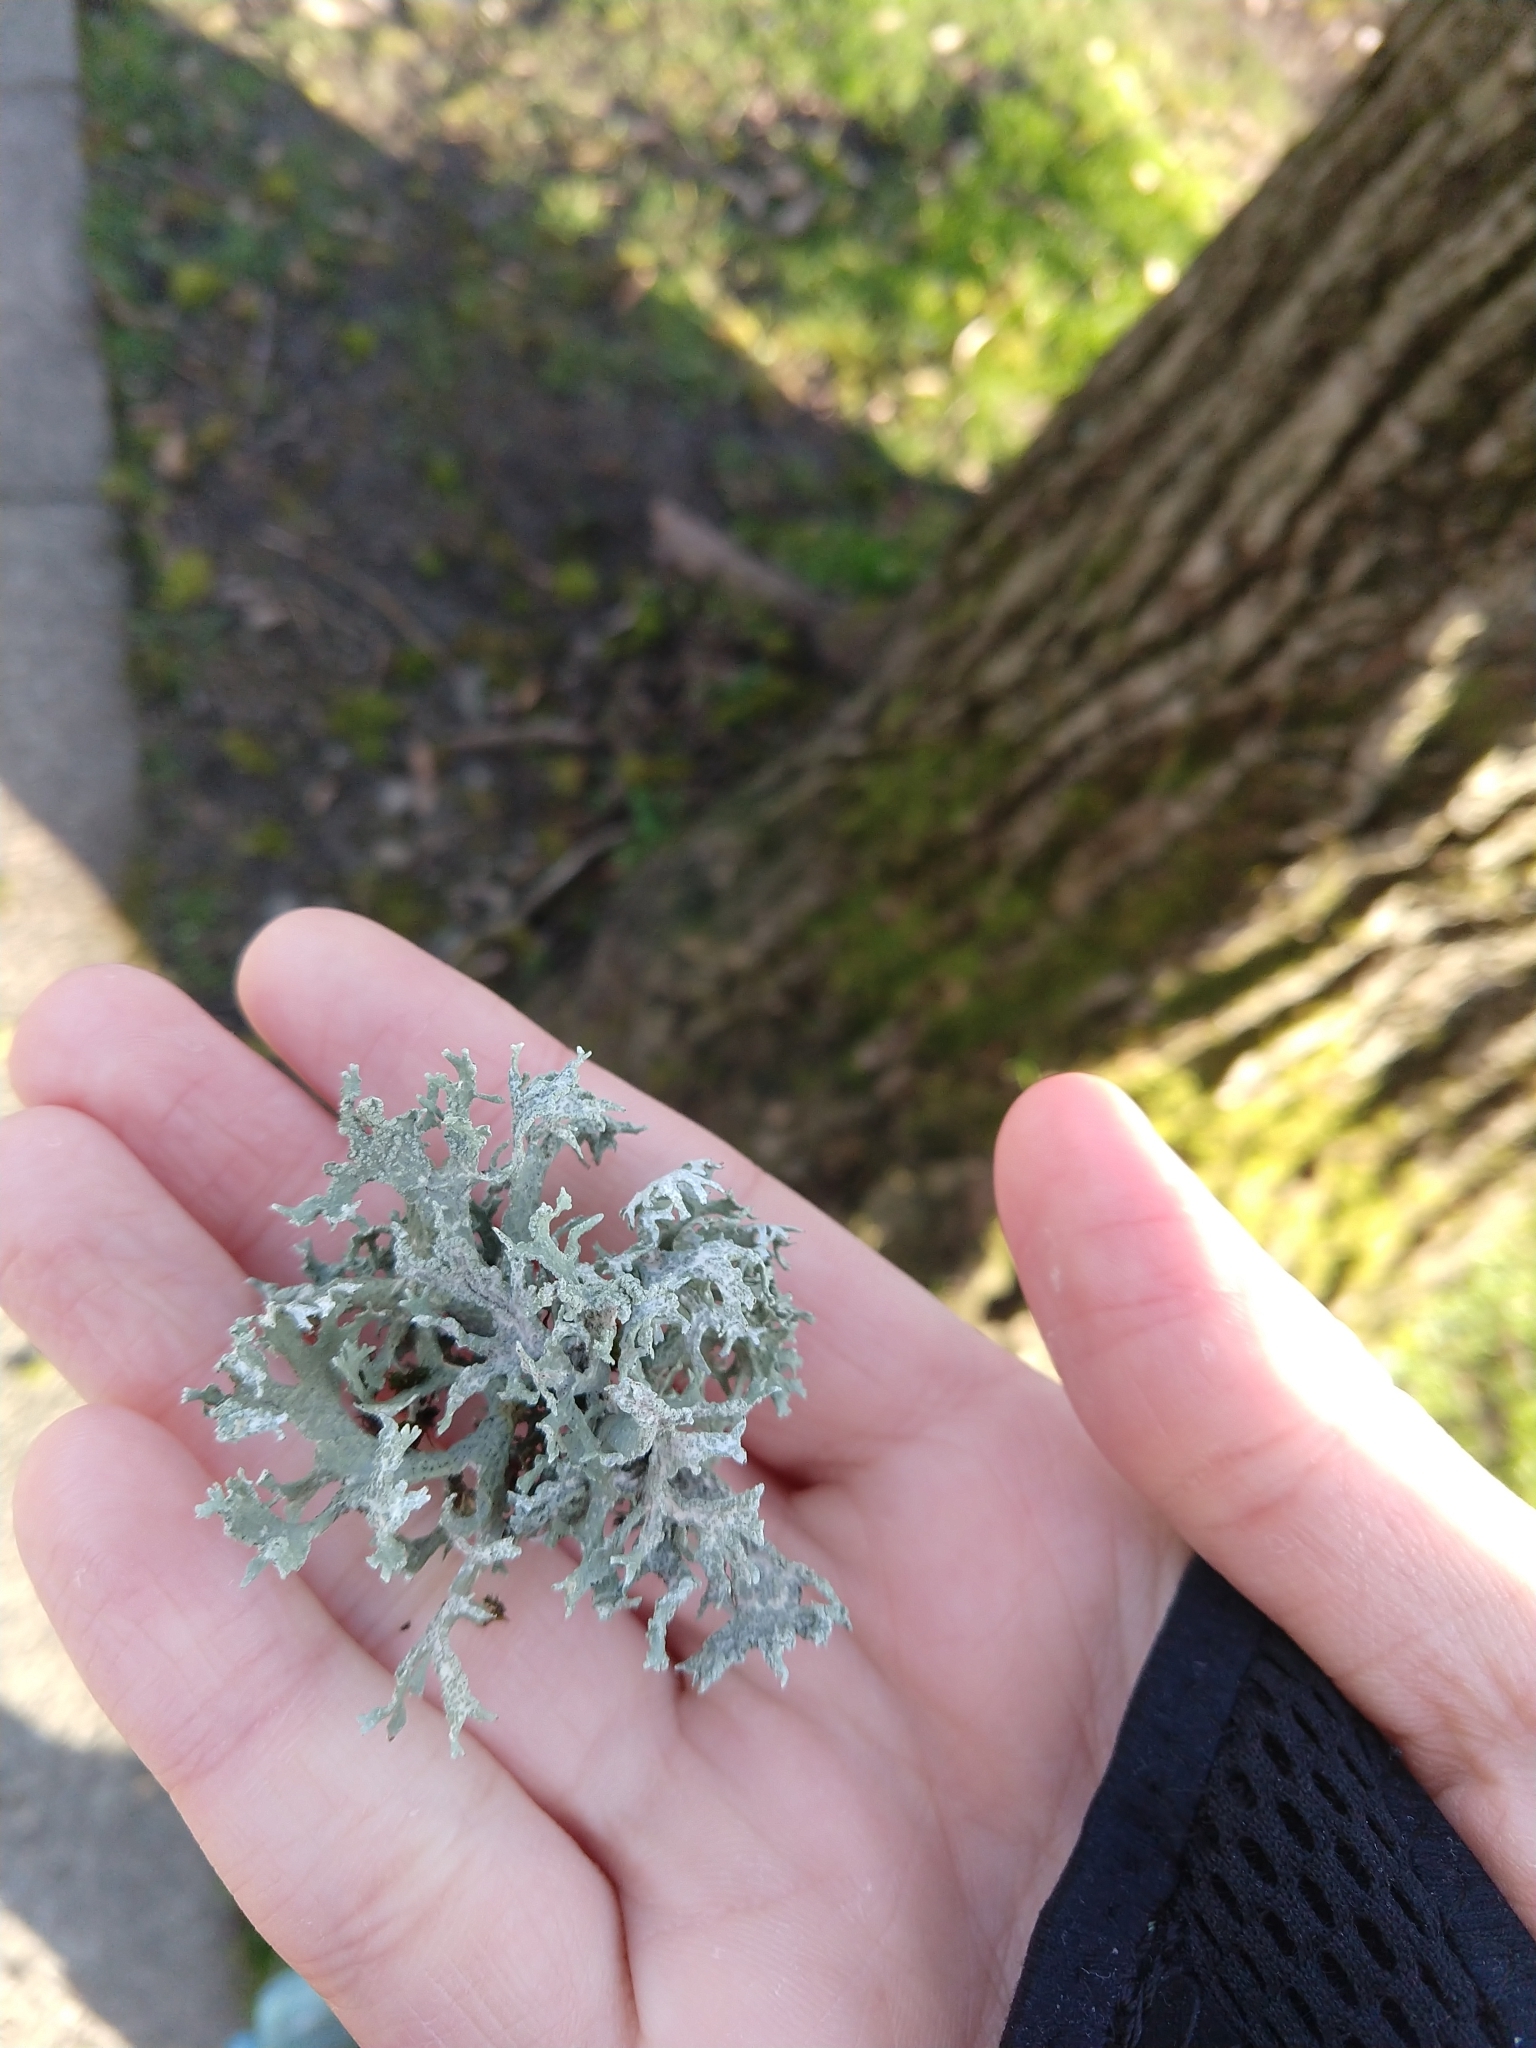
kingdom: Fungi
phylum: Ascomycota
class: Lecanoromycetes
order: Lecanorales
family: Parmeliaceae
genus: Evernia
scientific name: Evernia prunastri
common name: Oak moss
